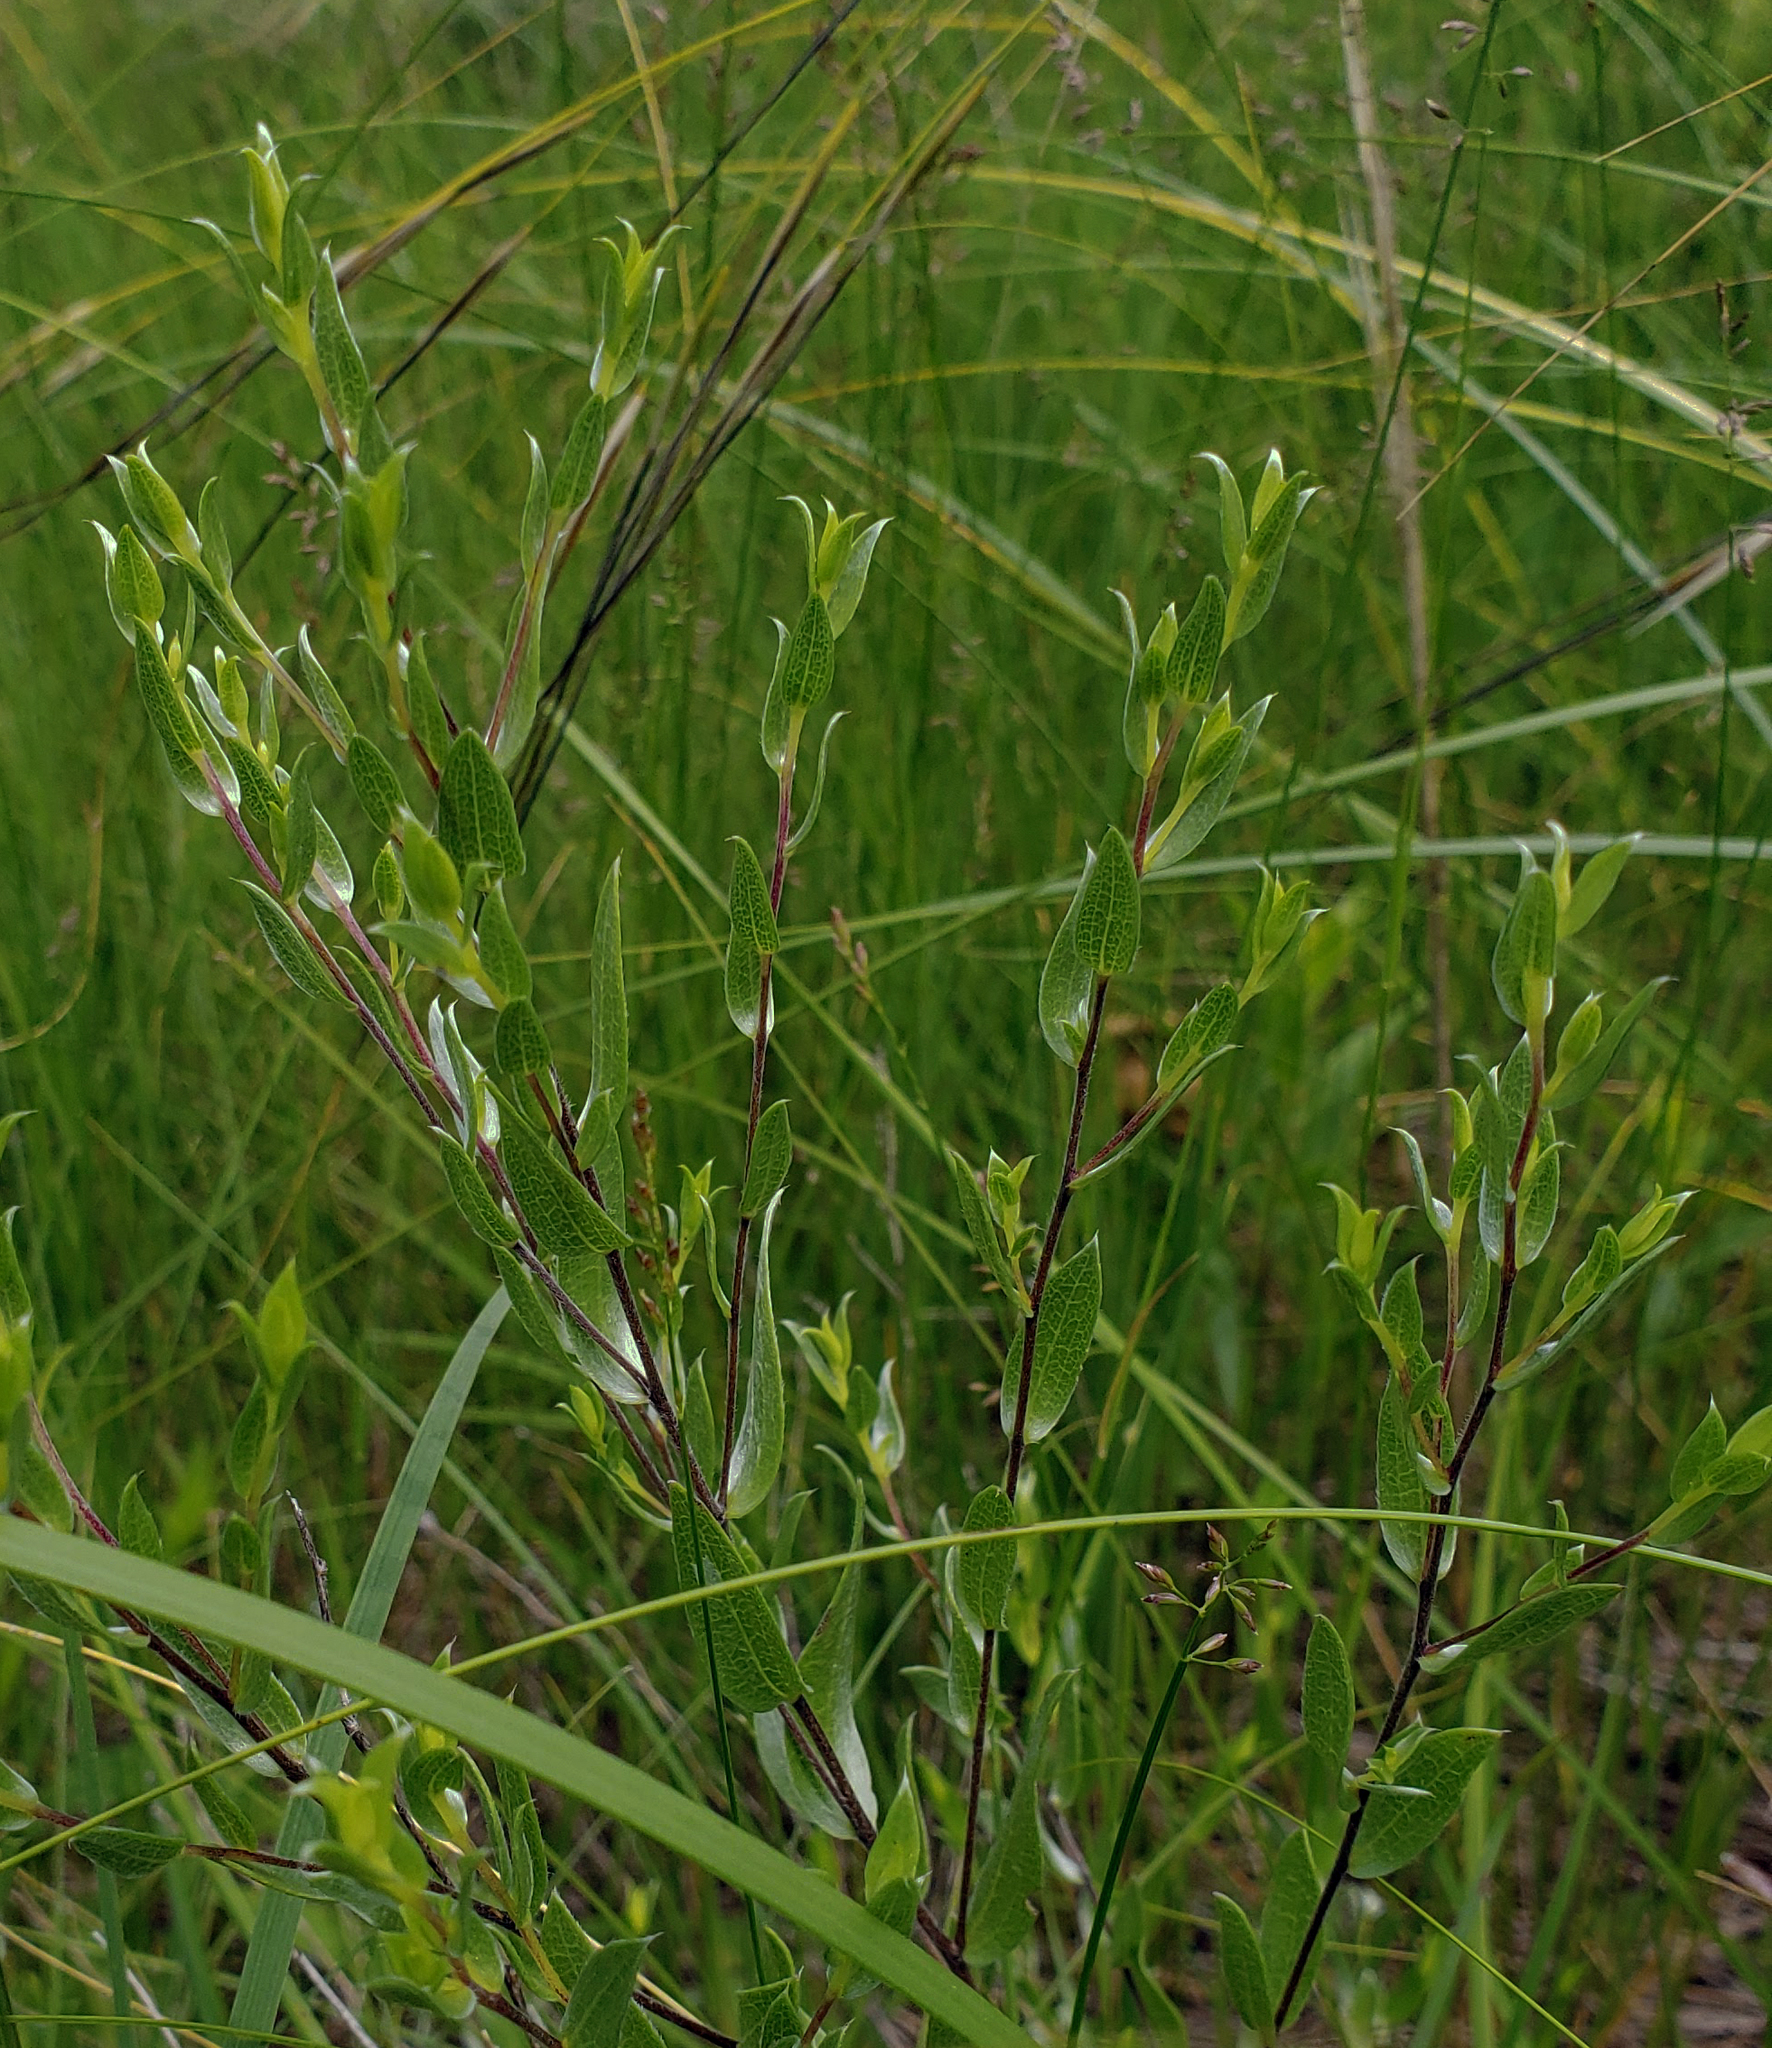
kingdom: Plantae
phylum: Tracheophyta
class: Magnoliopsida
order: Asterales
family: Asteraceae
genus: Symphyotrichum
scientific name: Symphyotrichum sericeum
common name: Silky aster
